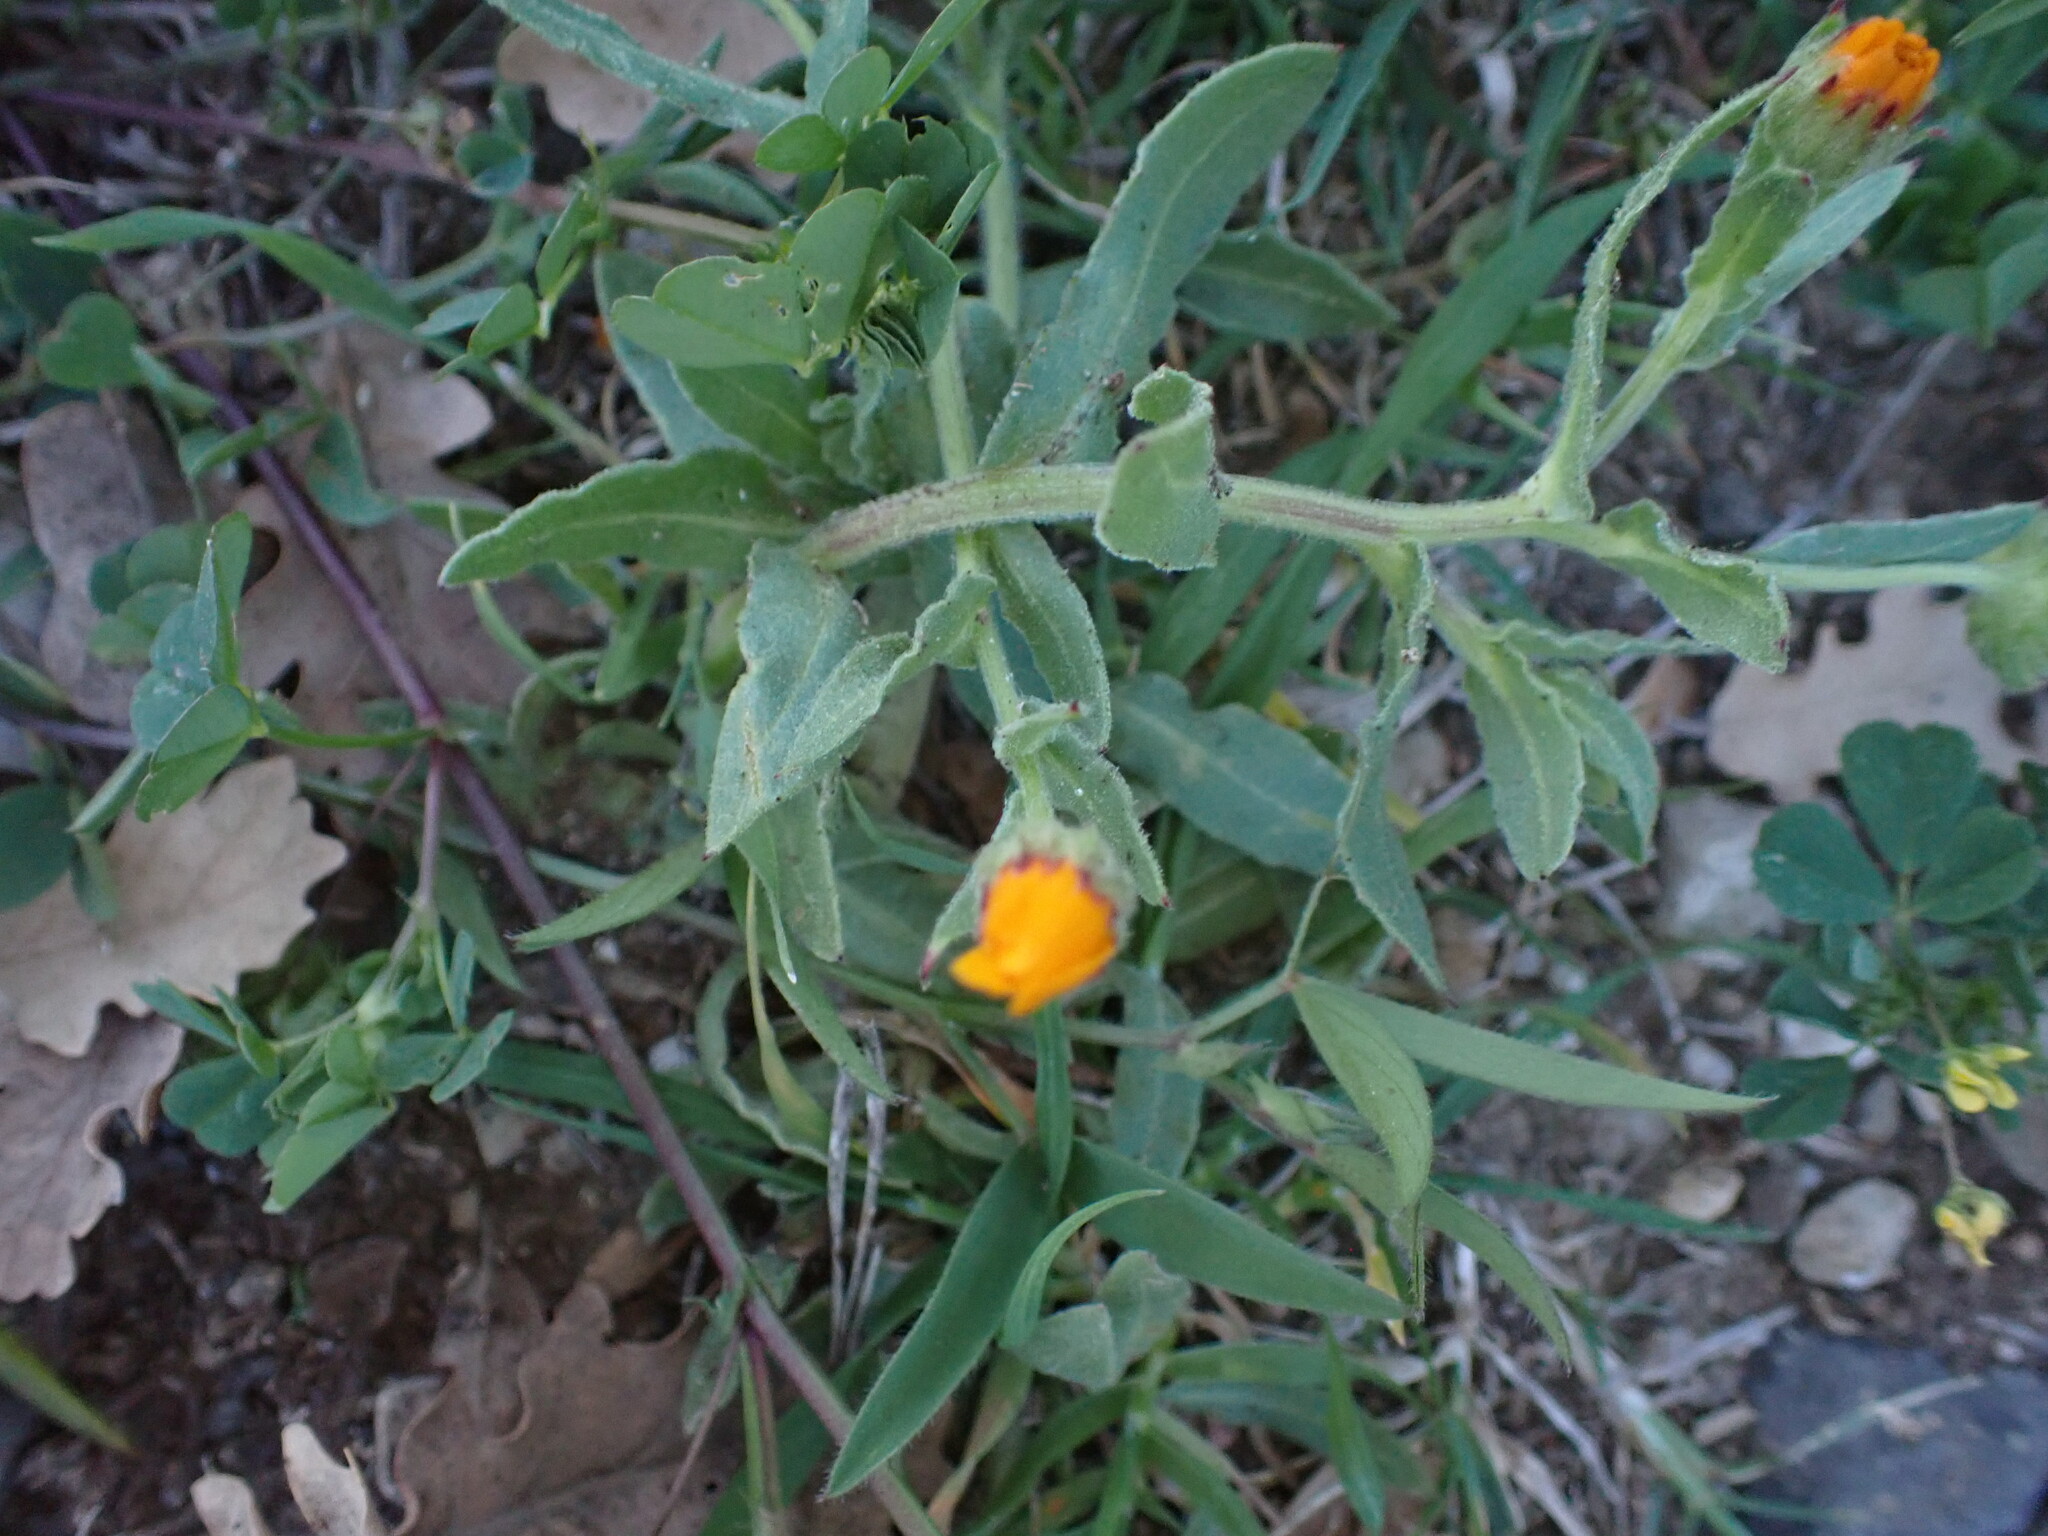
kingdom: Plantae
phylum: Tracheophyta
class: Magnoliopsida
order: Asterales
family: Asteraceae
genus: Calendula
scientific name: Calendula arvensis
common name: Field marigold
